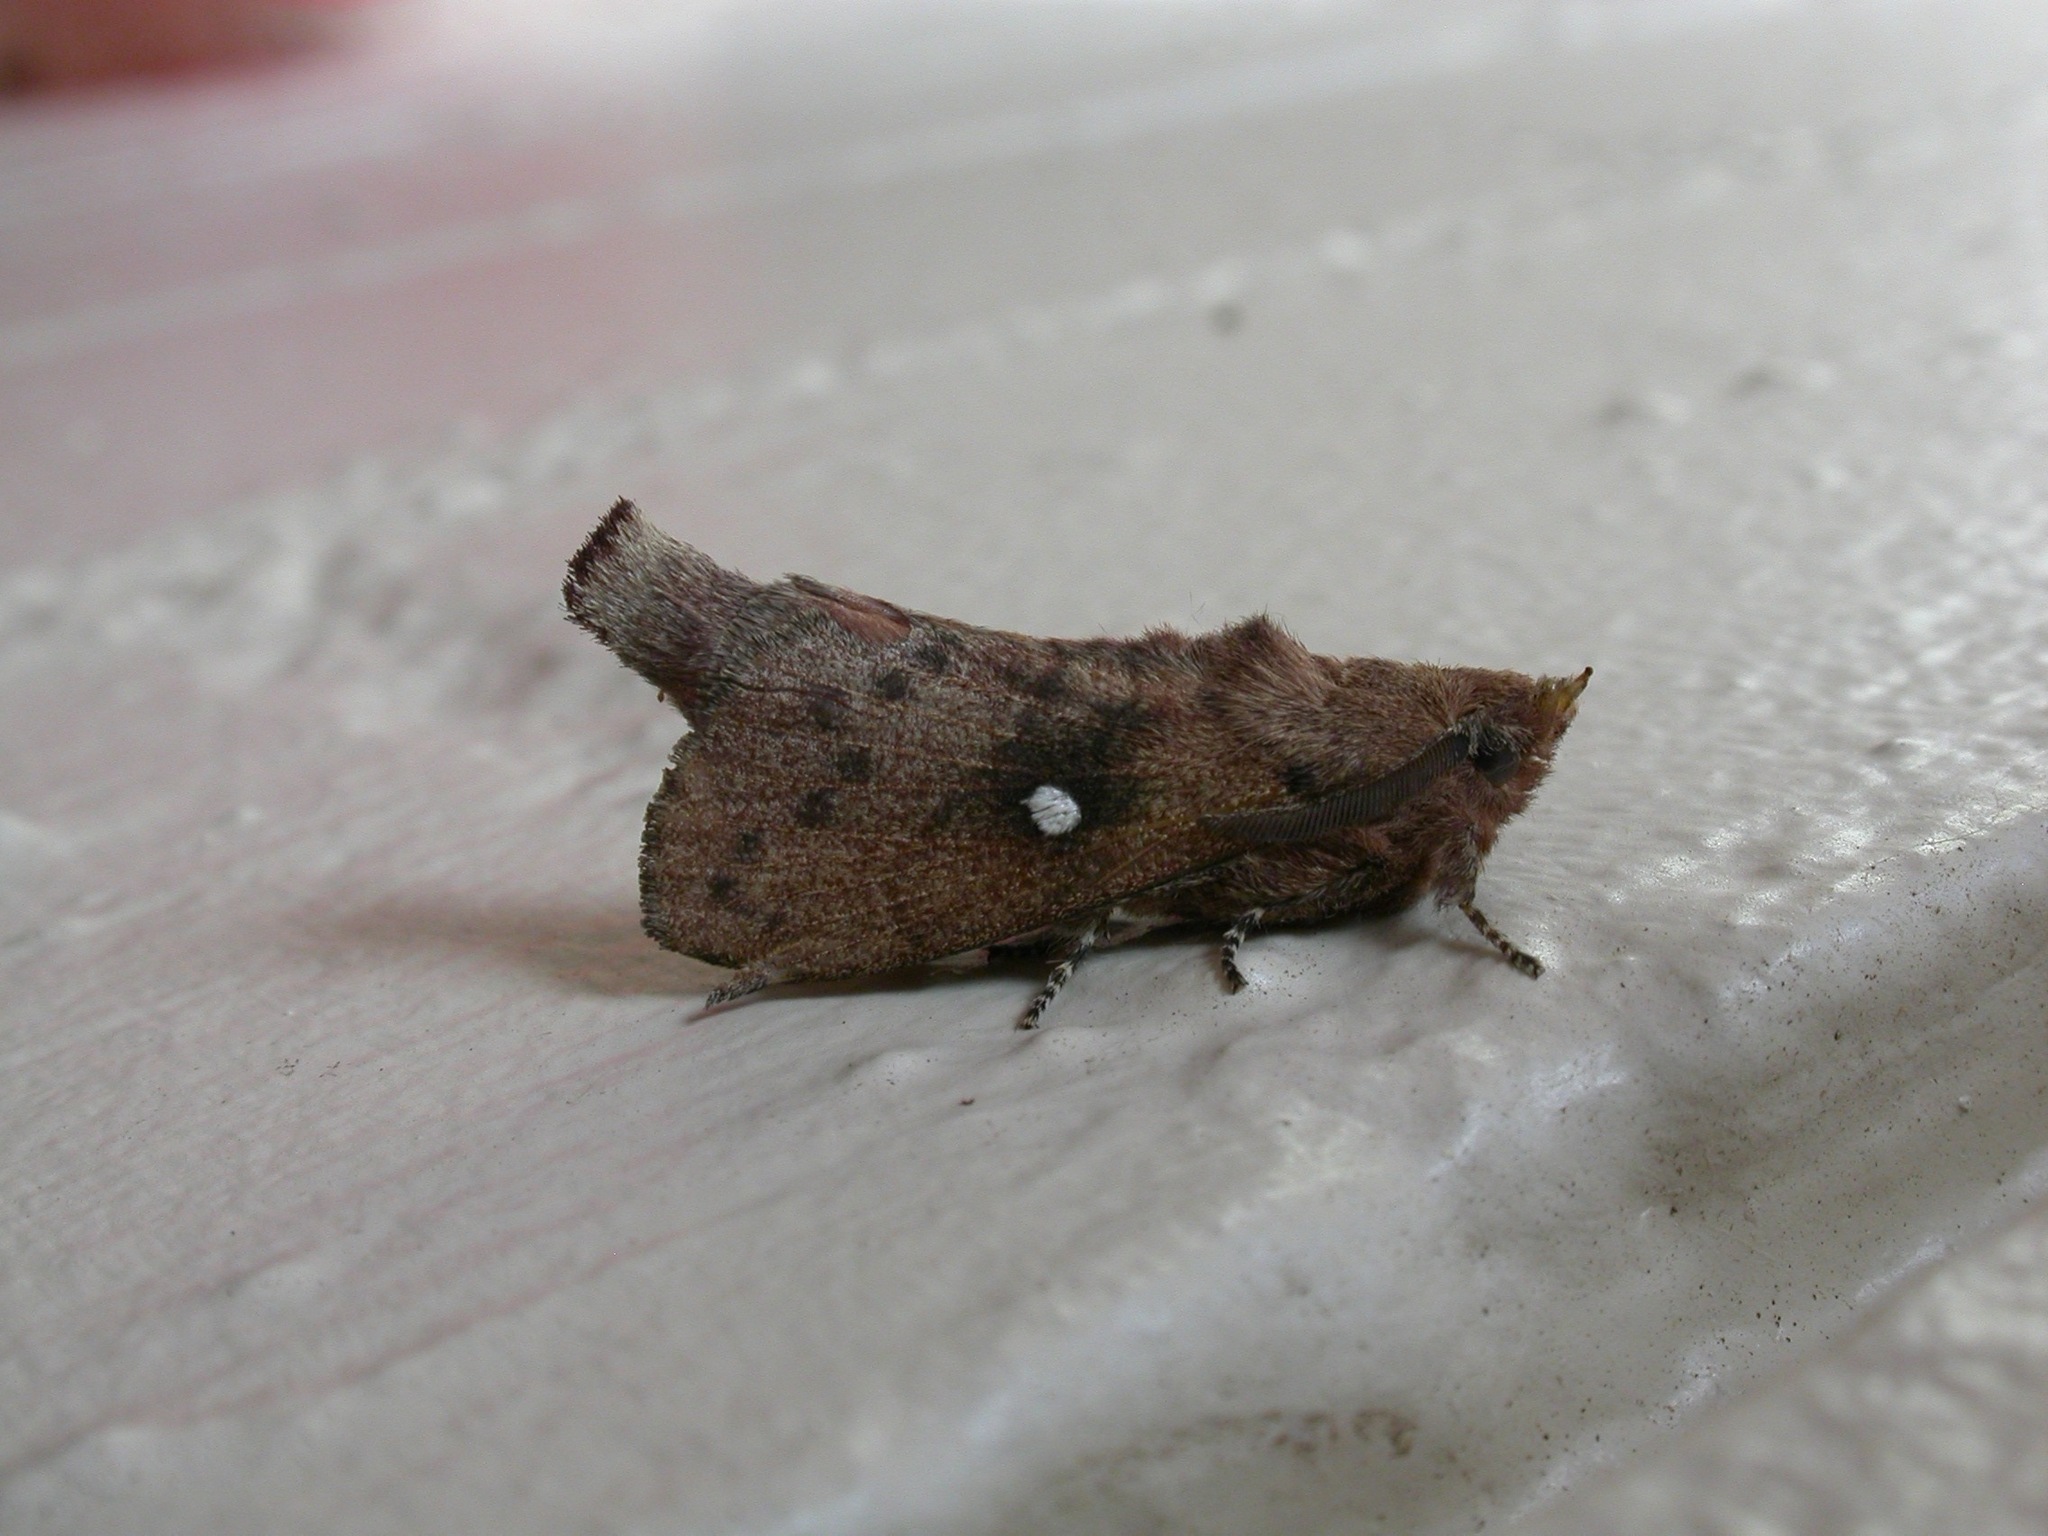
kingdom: Animalia
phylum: Arthropoda
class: Insecta
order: Lepidoptera
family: Lasiocampidae
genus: Opsirhina
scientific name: Opsirhina lechriodes
